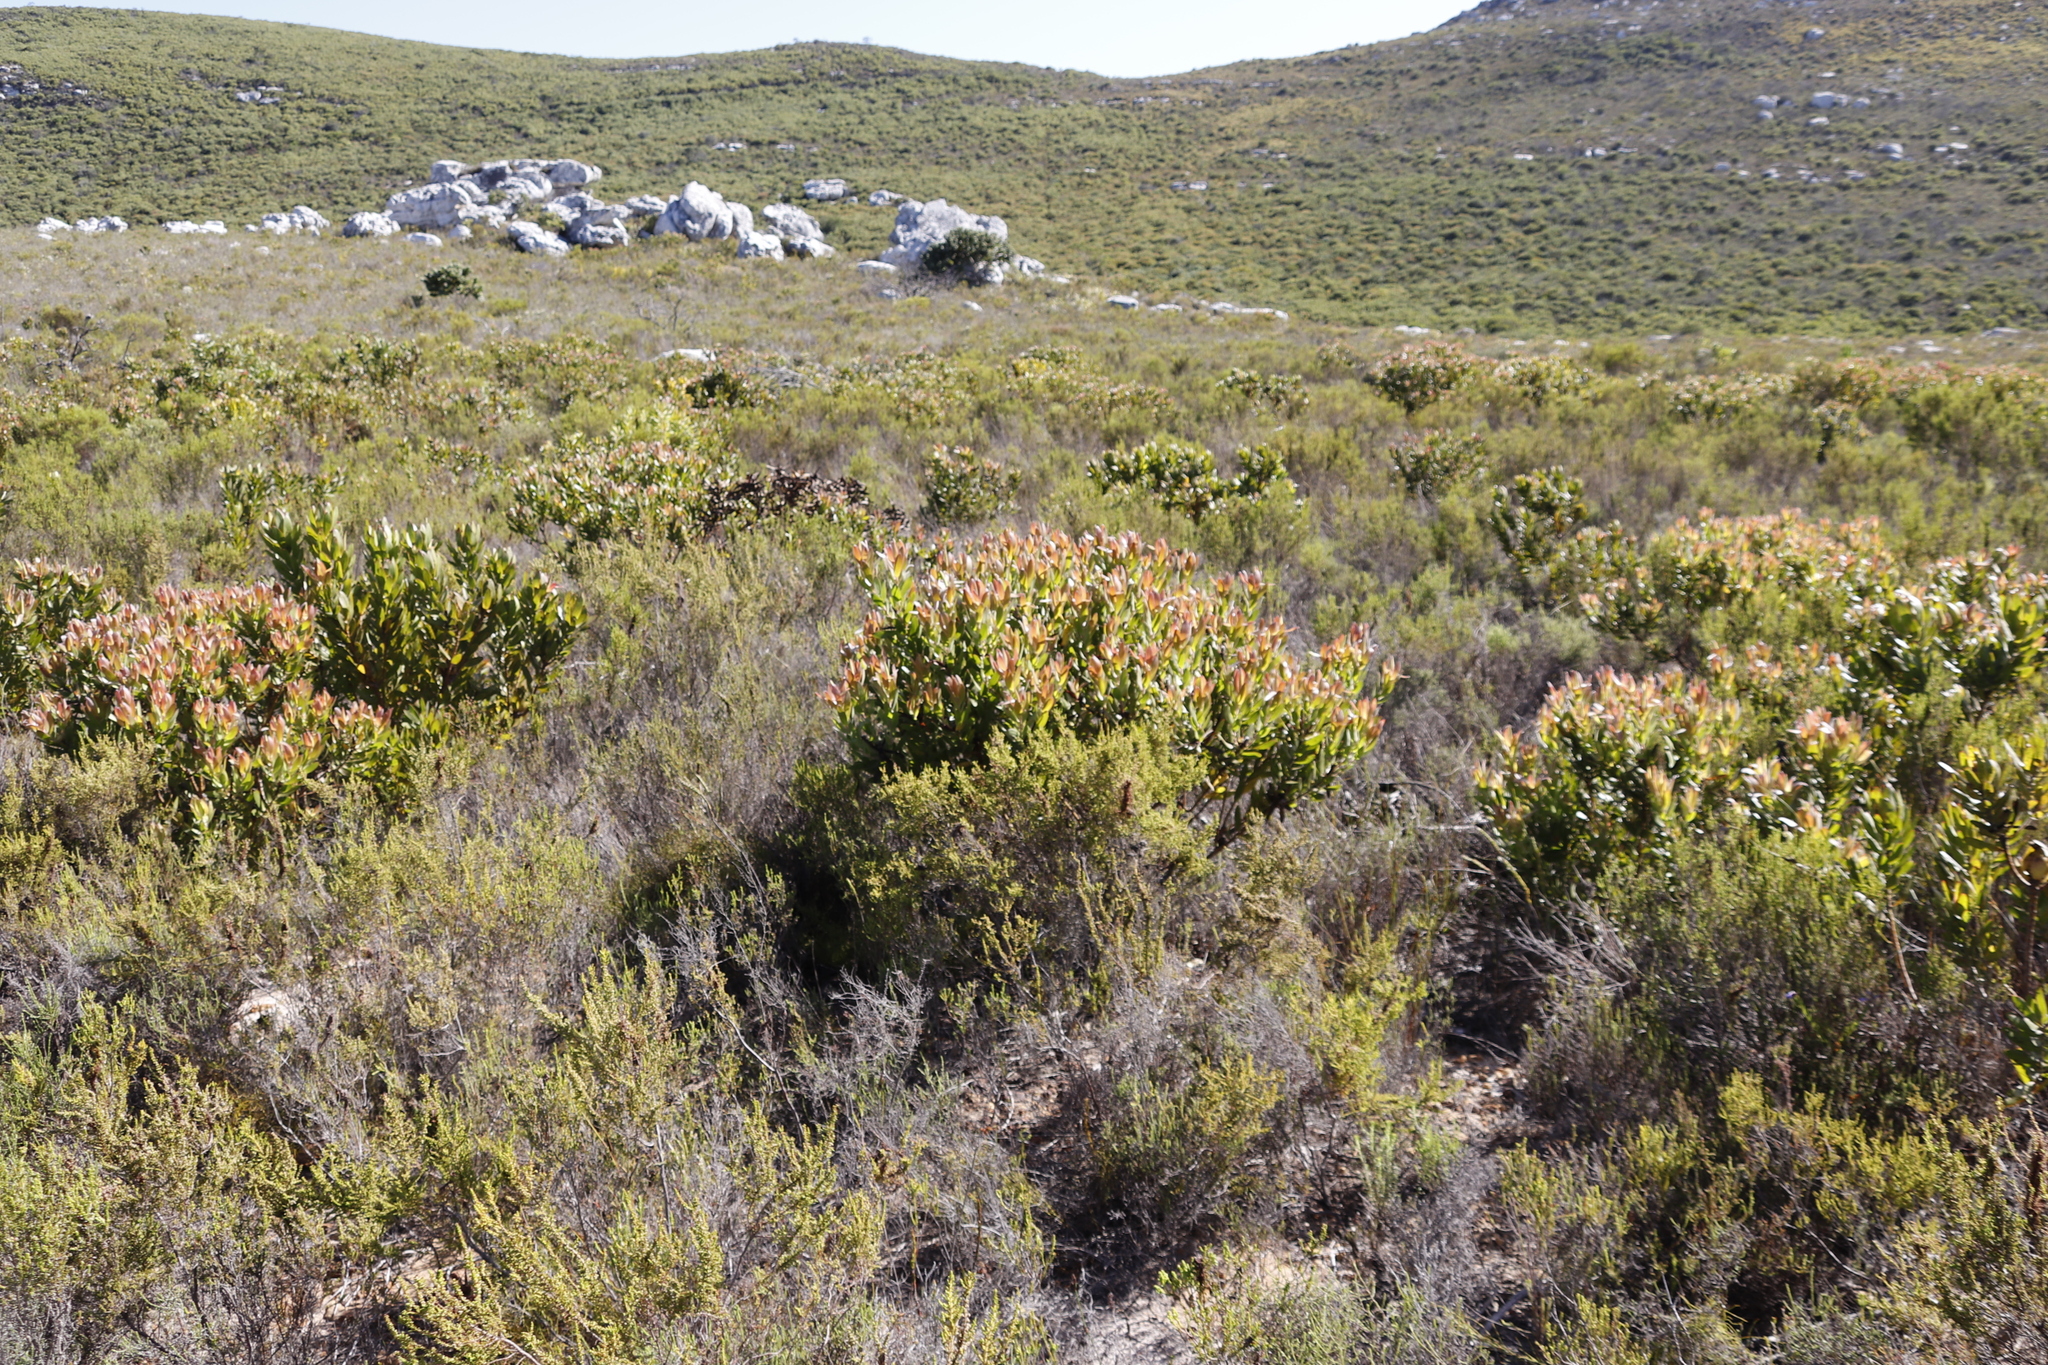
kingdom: Plantae
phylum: Tracheophyta
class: Magnoliopsida
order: Proteales
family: Proteaceae
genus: Leucadendron
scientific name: Leucadendron laureolum
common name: Golden sunshinebush
